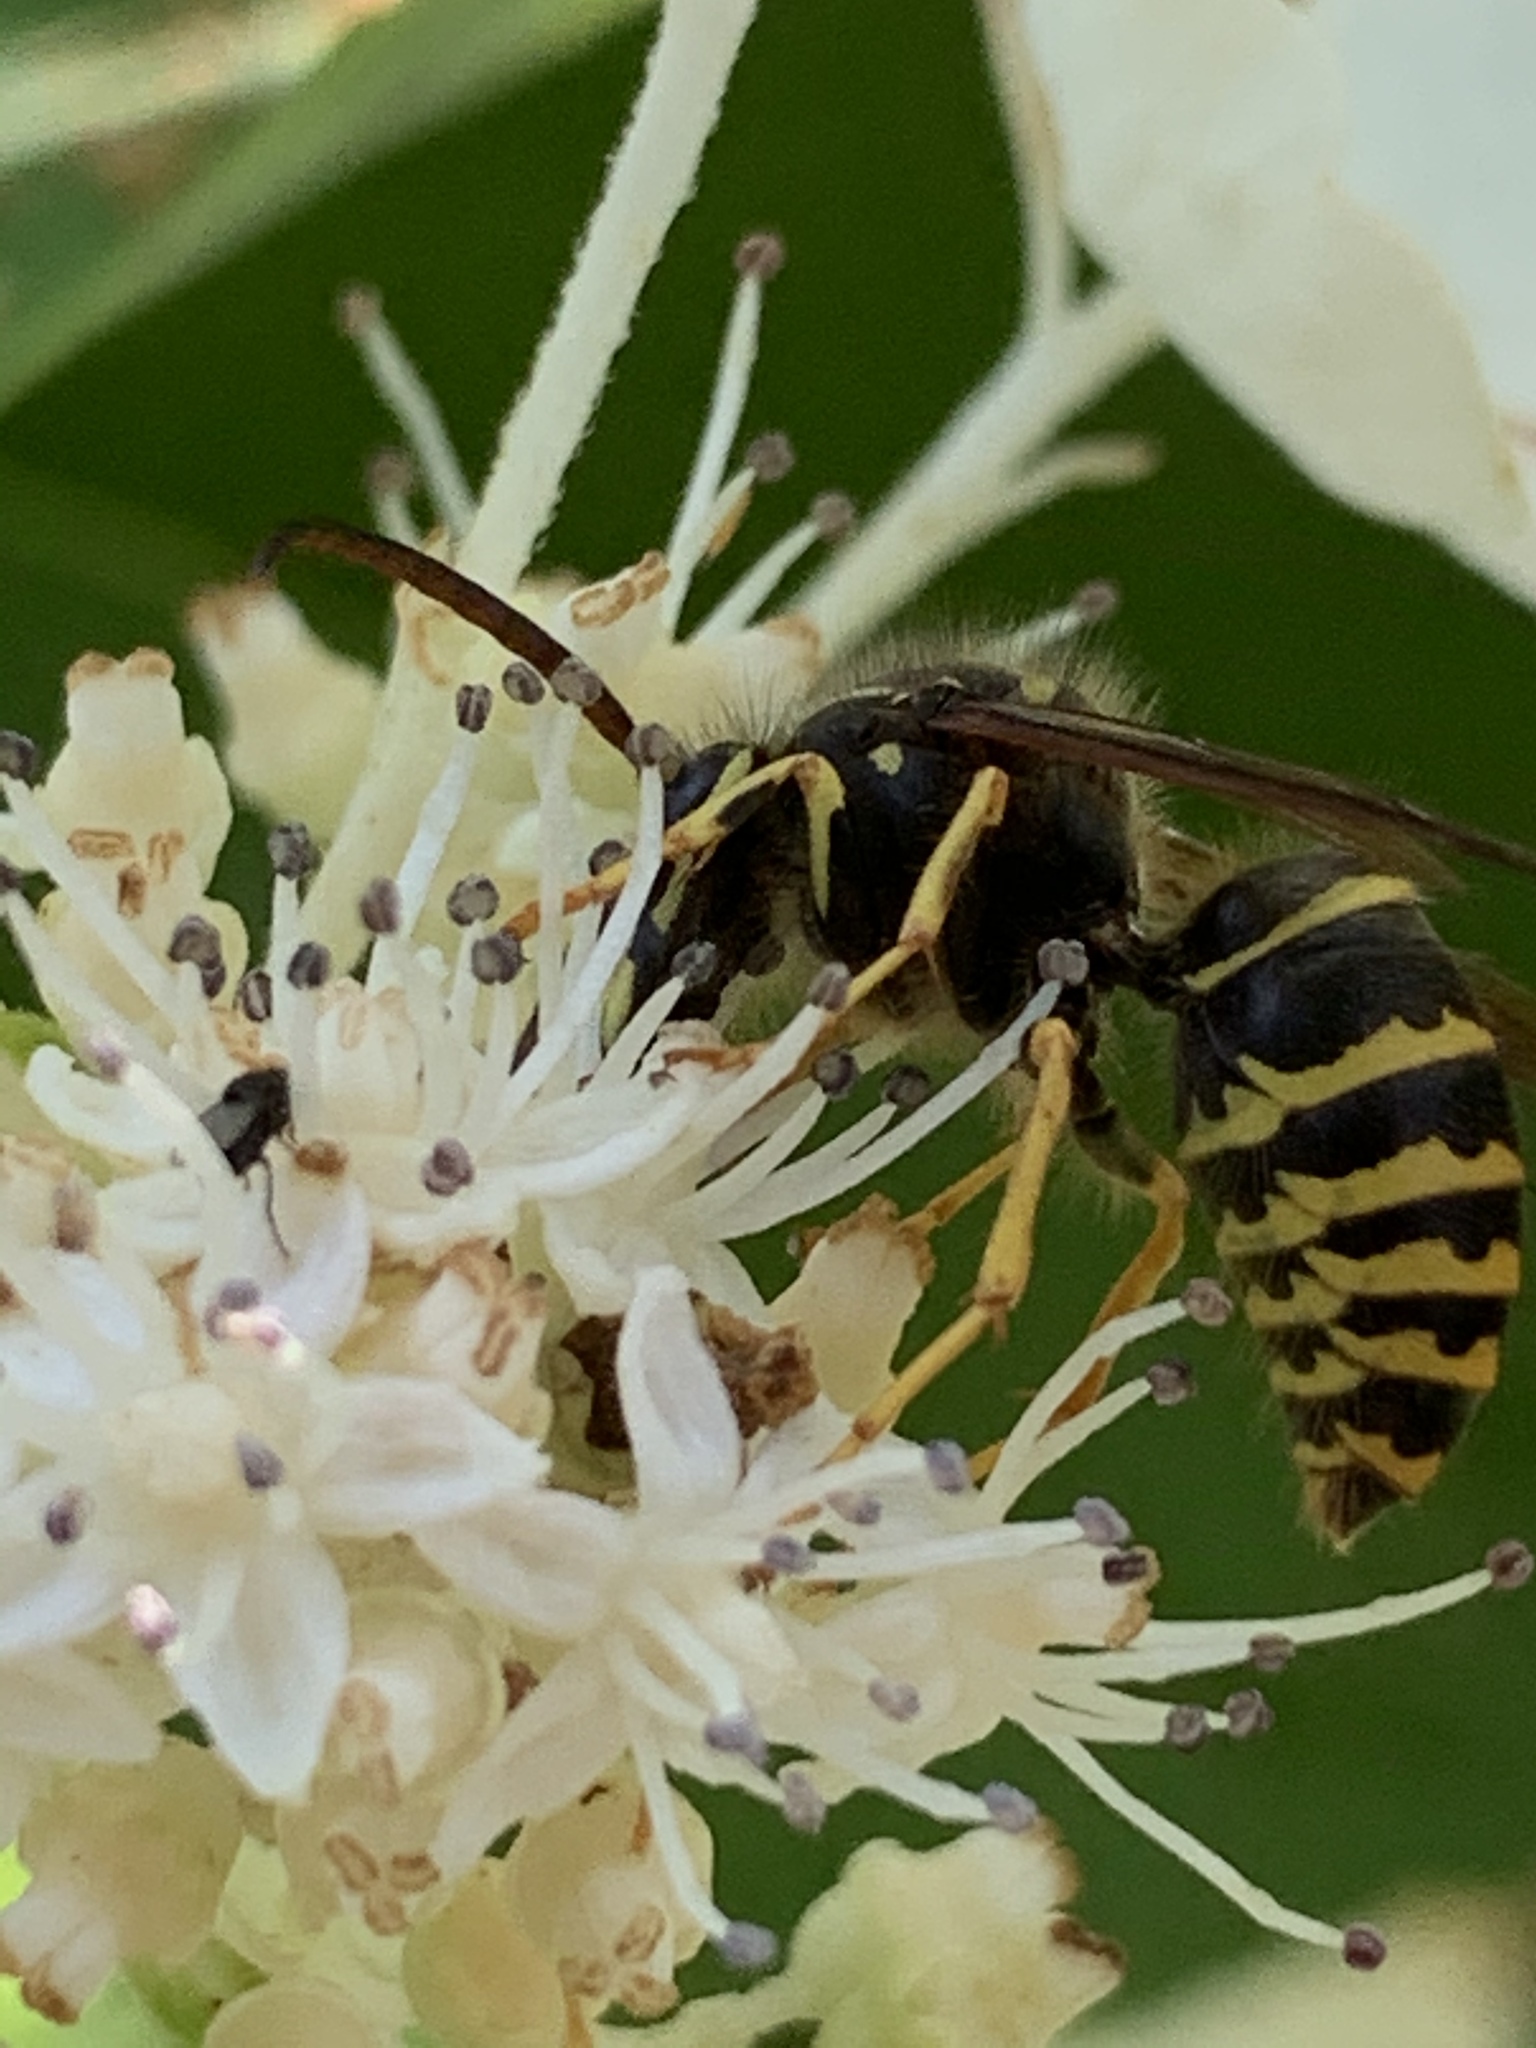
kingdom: Animalia
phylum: Arthropoda
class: Insecta
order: Hymenoptera
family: Vespidae
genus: Dolichovespula
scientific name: Dolichovespula arenaria
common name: Aerial yellowjacket
